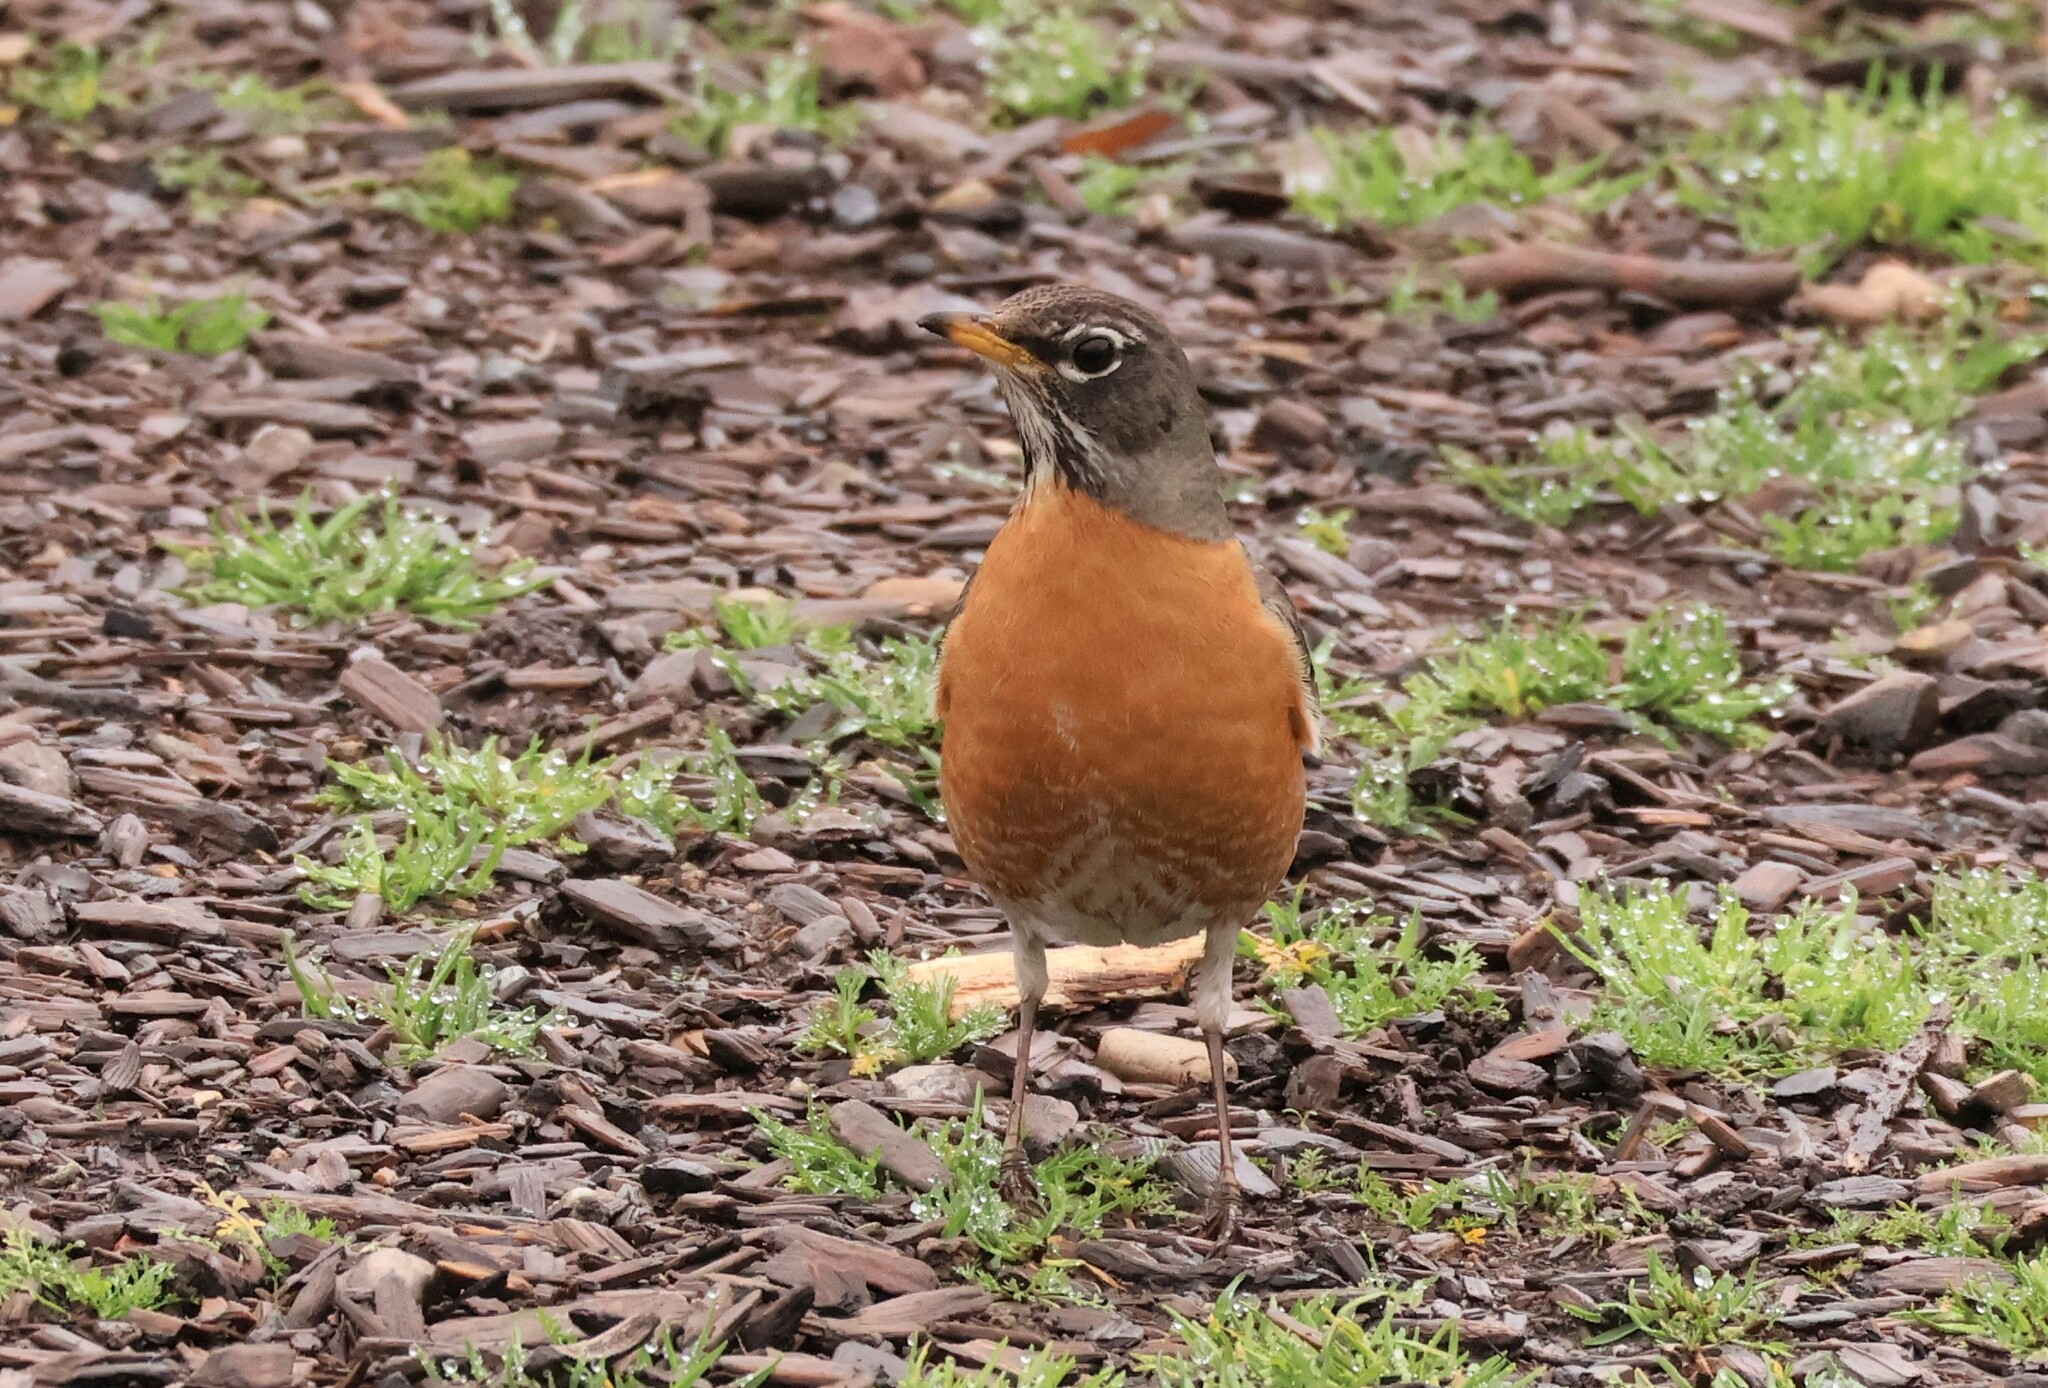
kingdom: Animalia
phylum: Chordata
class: Aves
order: Passeriformes
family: Turdidae
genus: Turdus
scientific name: Turdus migratorius
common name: American robin
